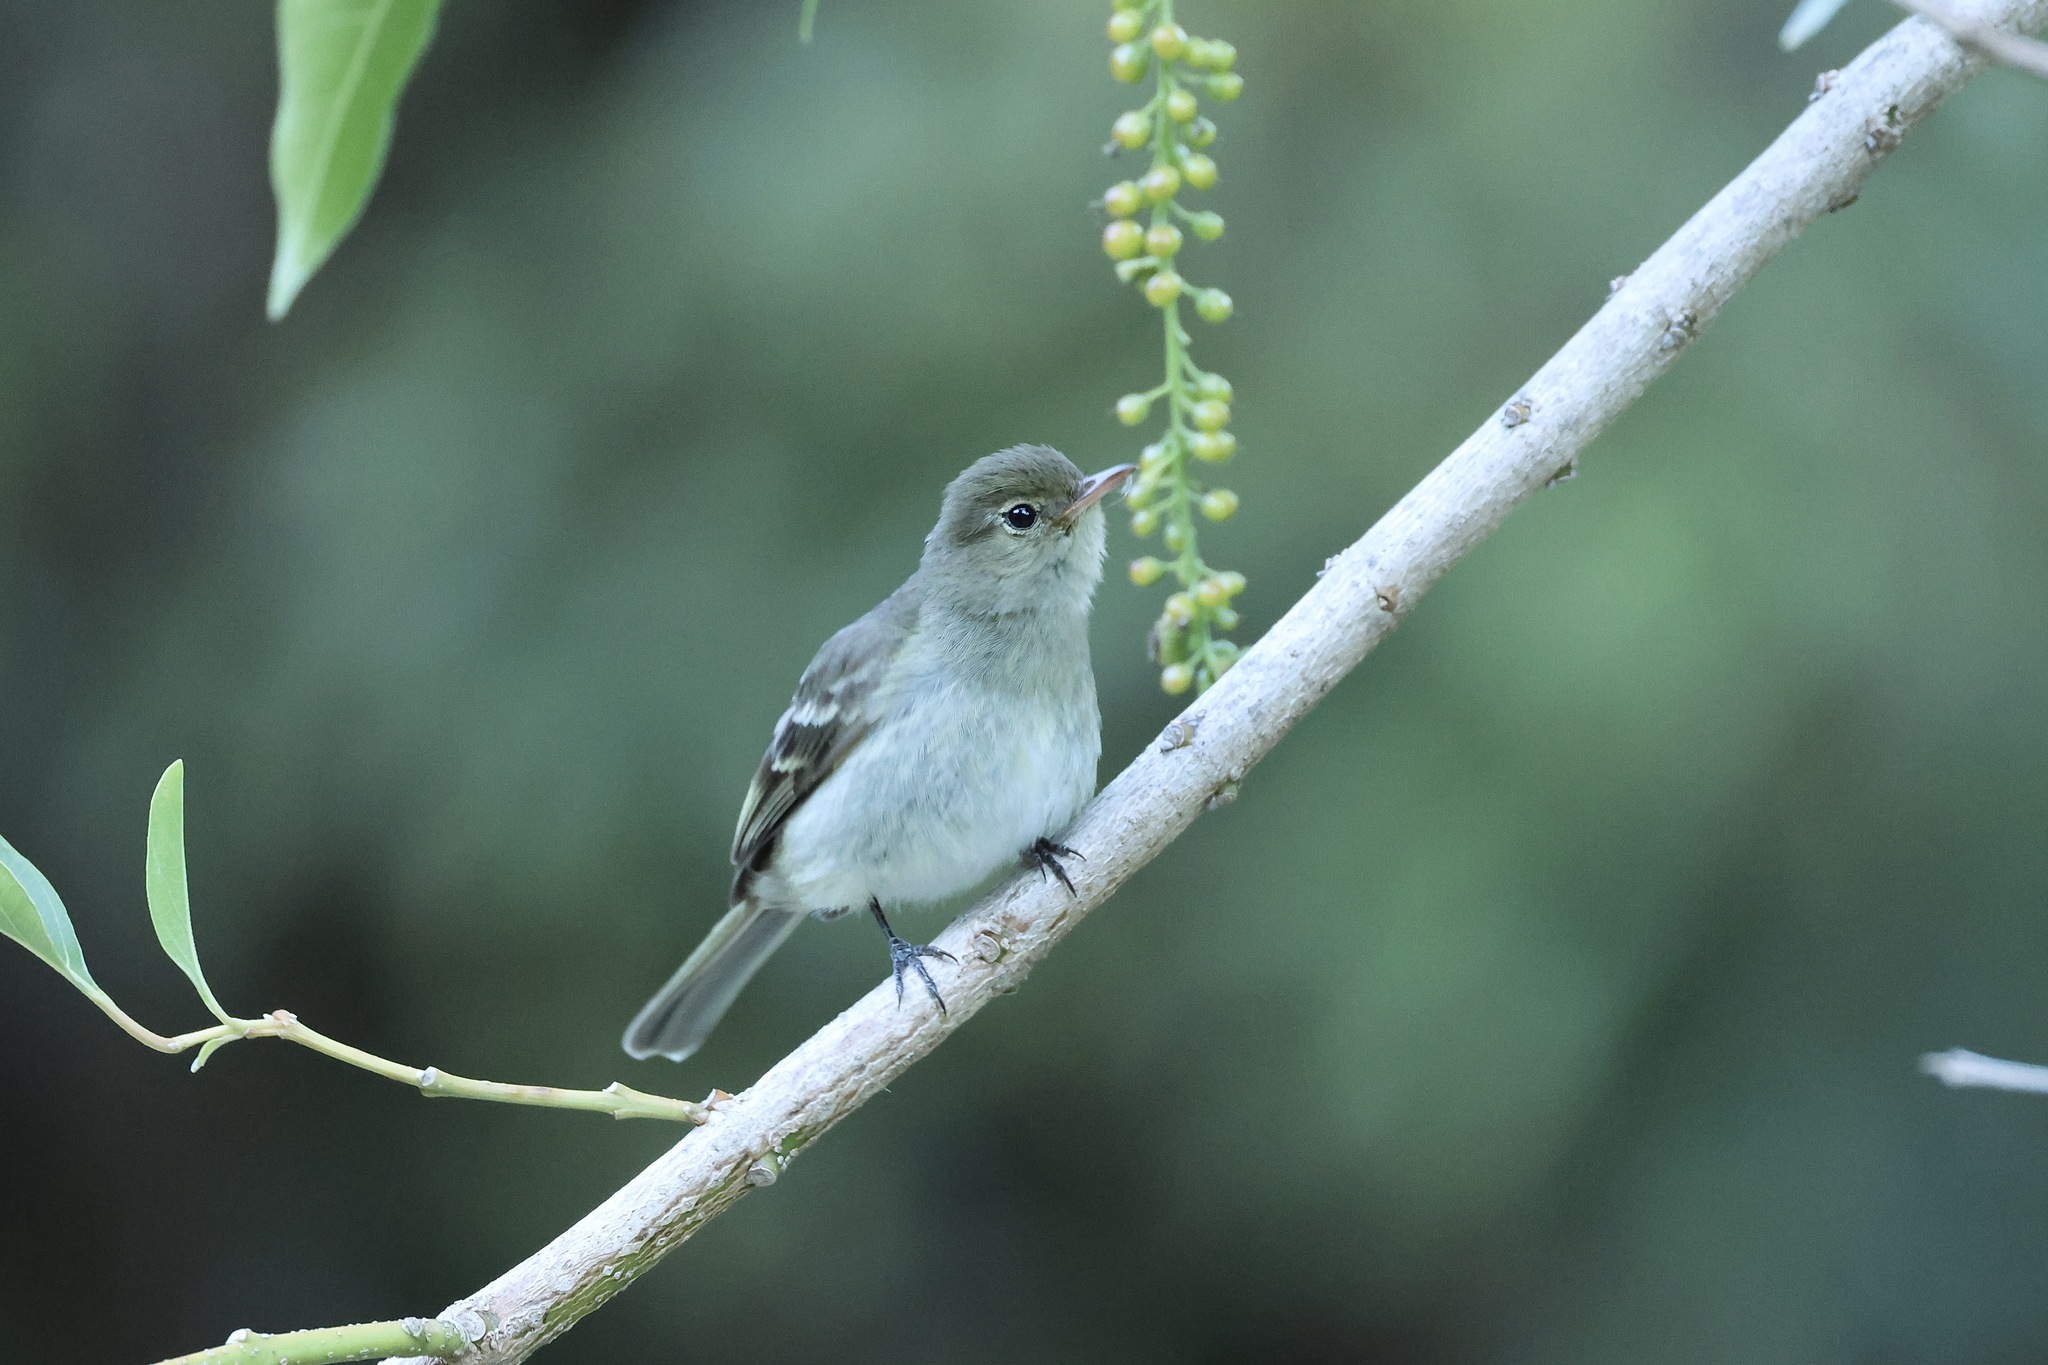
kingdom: Animalia
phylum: Chordata
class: Aves
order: Passeriformes
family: Tyrannidae
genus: Elaenia
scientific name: Elaenia frantzii
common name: Mountain elaenia
